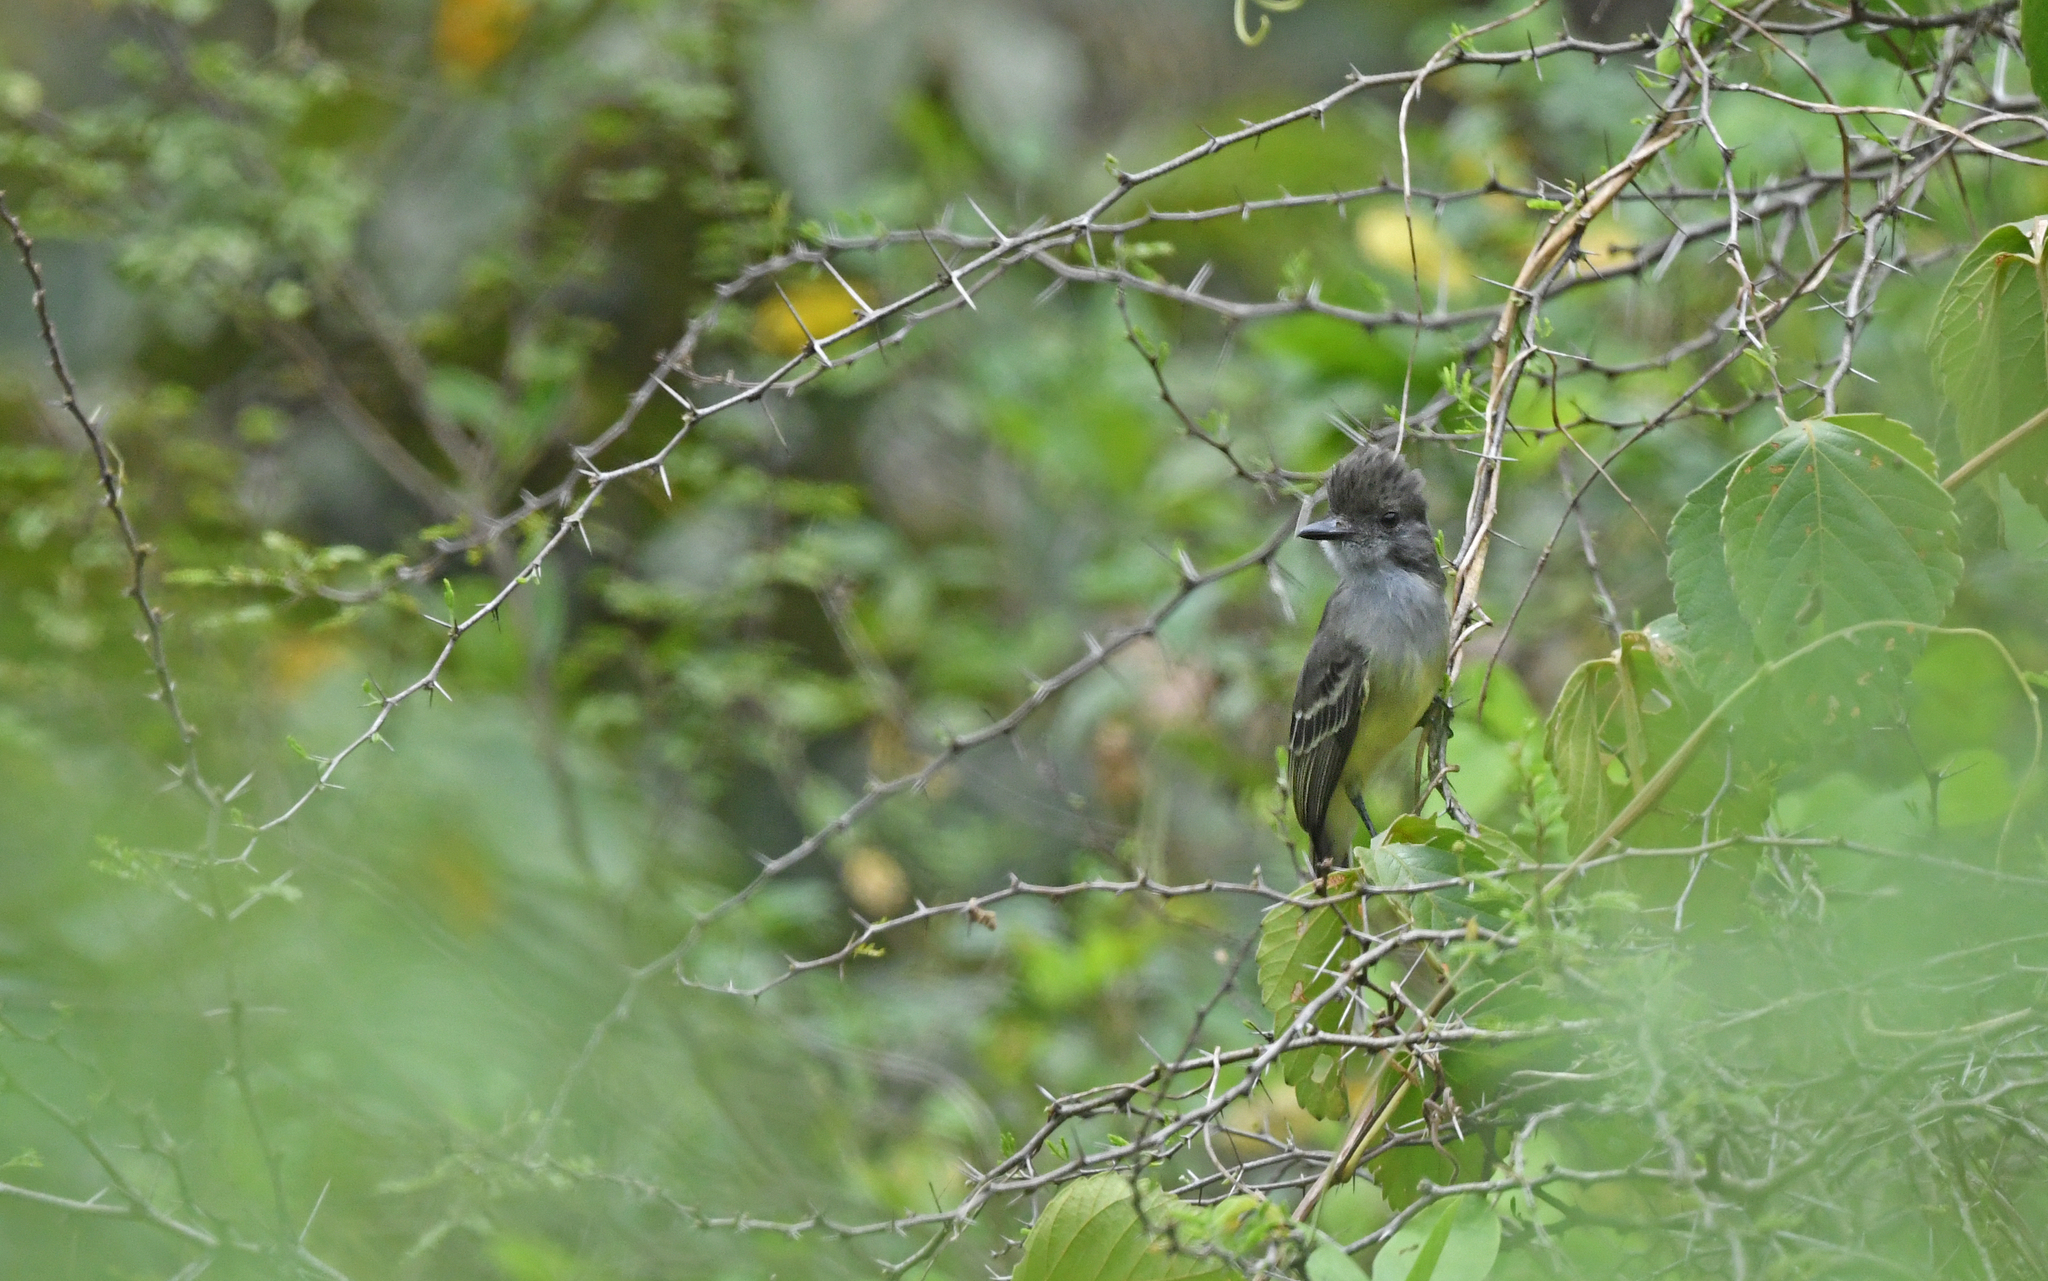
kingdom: Animalia
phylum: Chordata
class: Aves
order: Passeriformes
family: Tyrannidae
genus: Myiarchus
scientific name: Myiarchus apicalis
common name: Apical flycatcher
